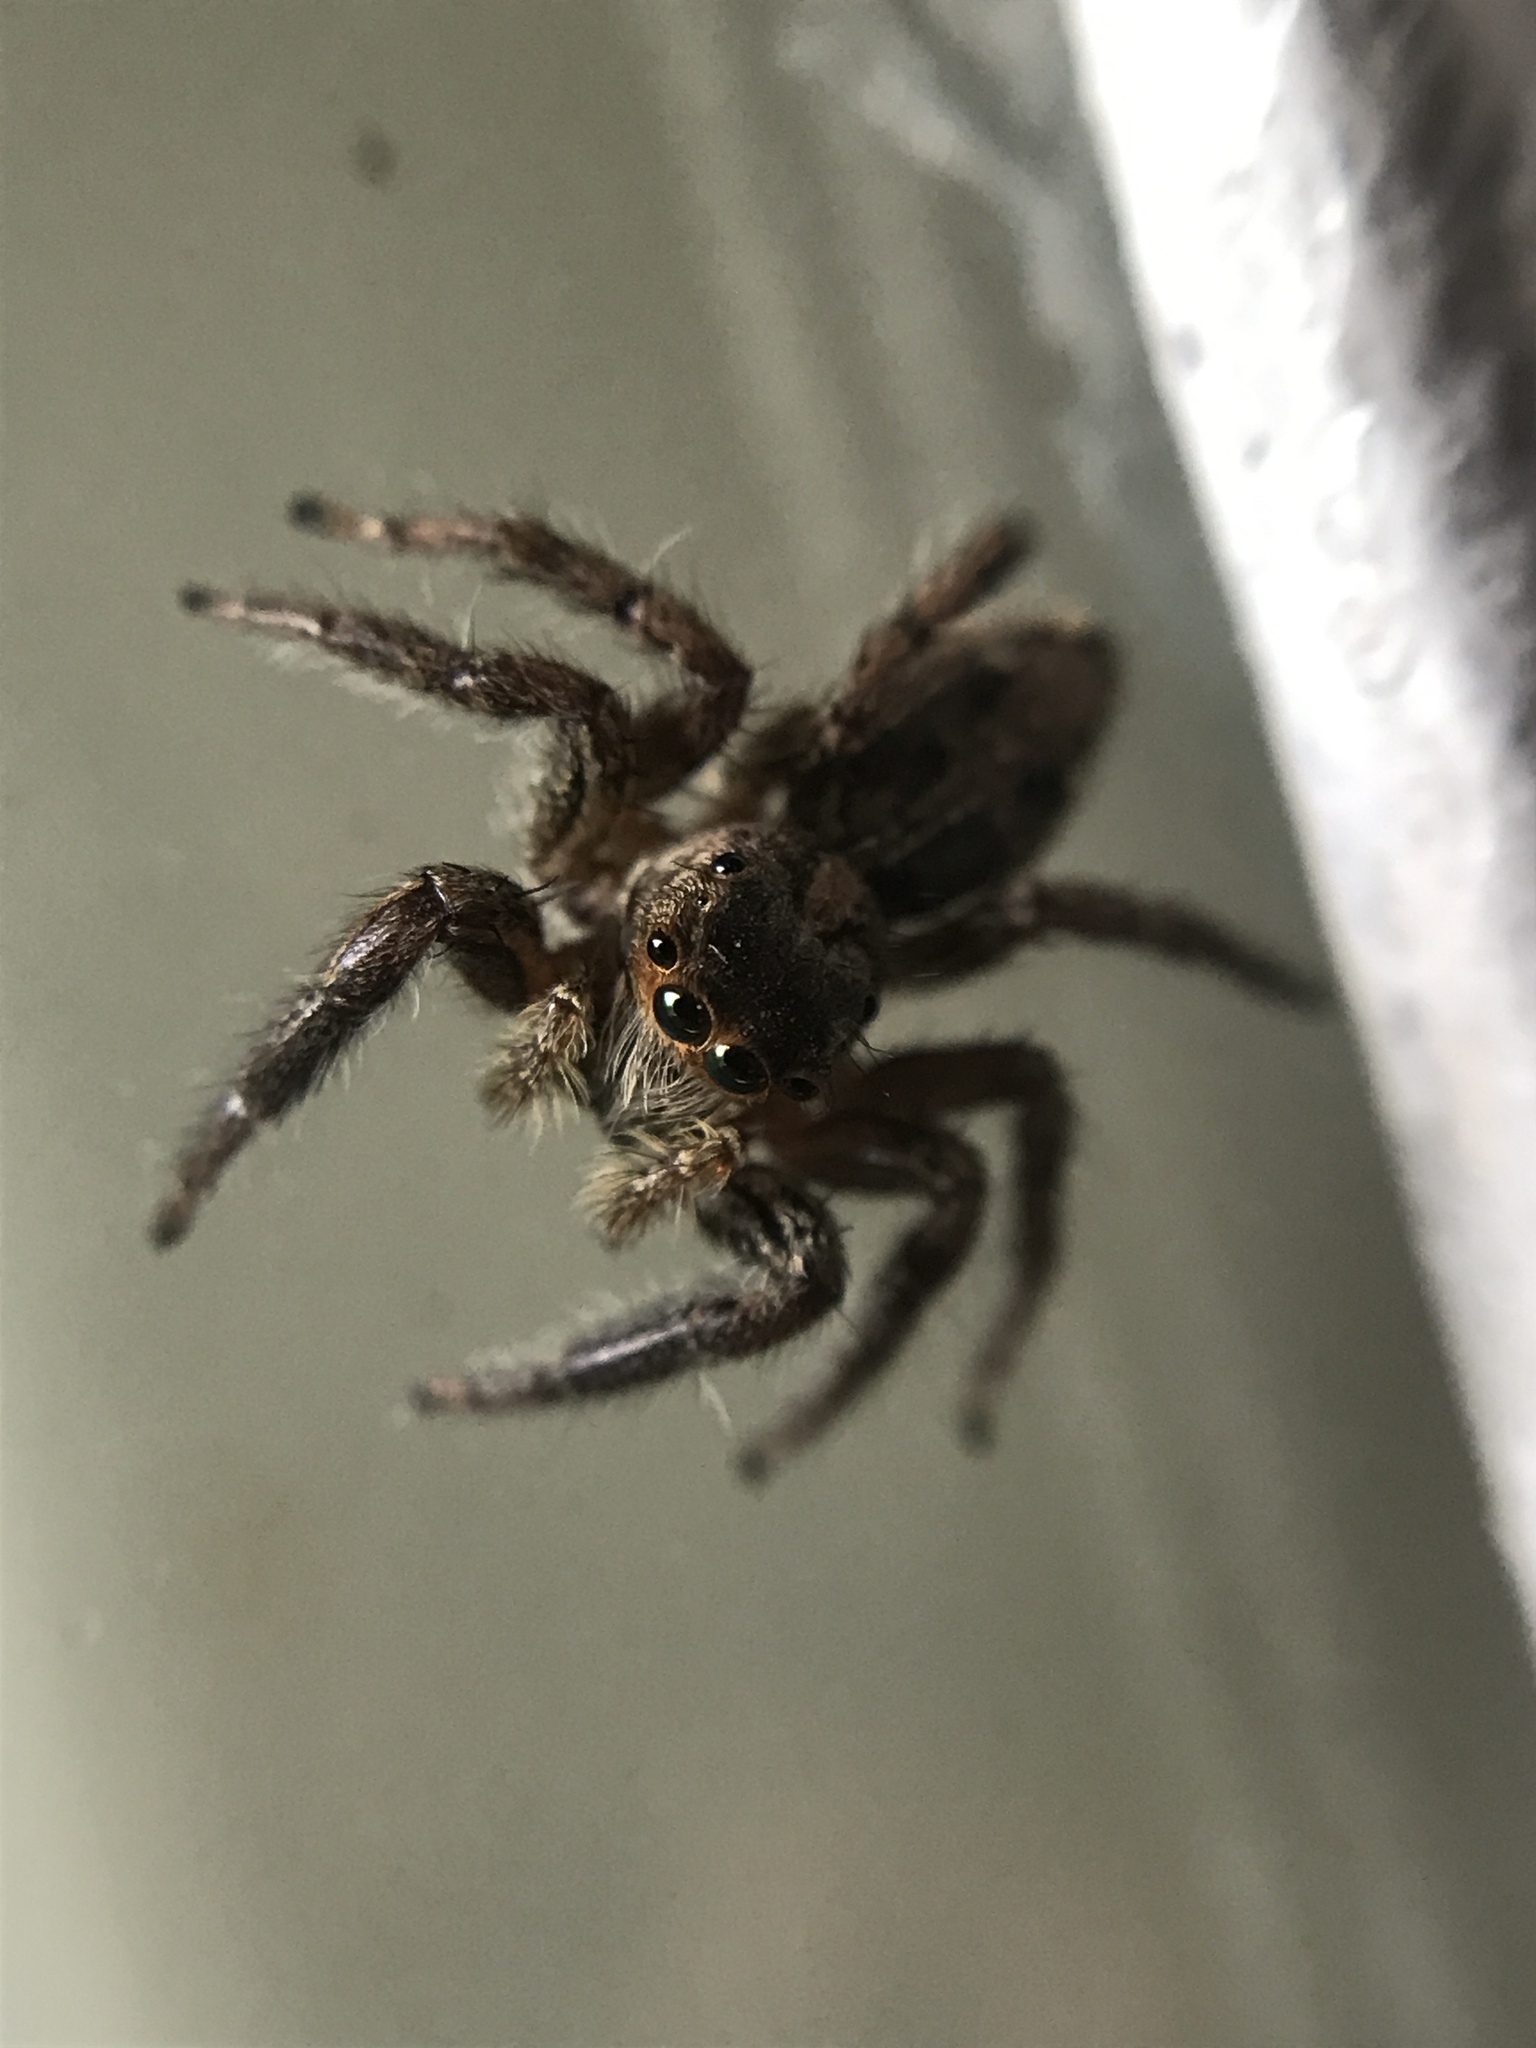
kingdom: Animalia
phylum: Arthropoda
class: Arachnida
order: Araneae
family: Salticidae
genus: Plexippus
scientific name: Plexippus paykulli
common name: Pantropical jumper
